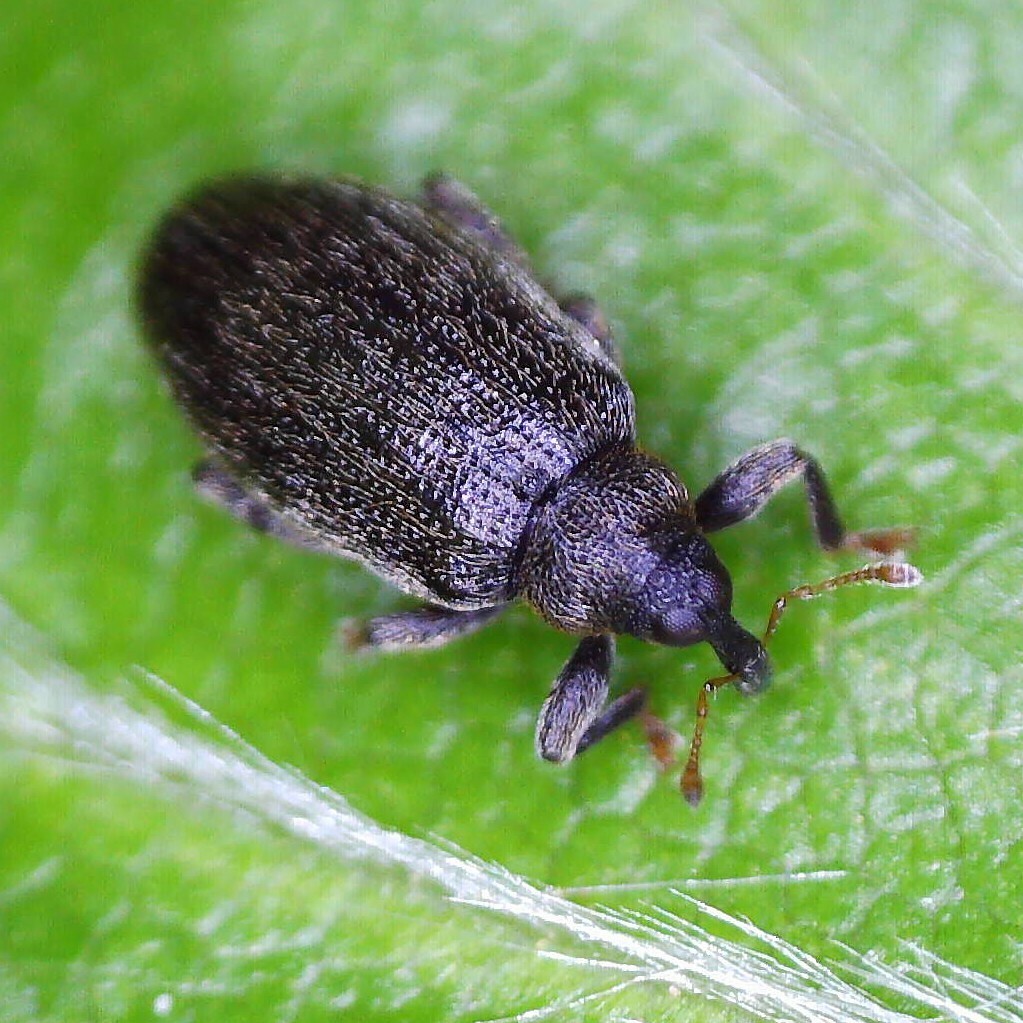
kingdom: Animalia
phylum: Arthropoda
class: Insecta
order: Coleoptera
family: Curculionidae
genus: Orchestes
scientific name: Orchestes fagi
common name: Beech leaf miner
